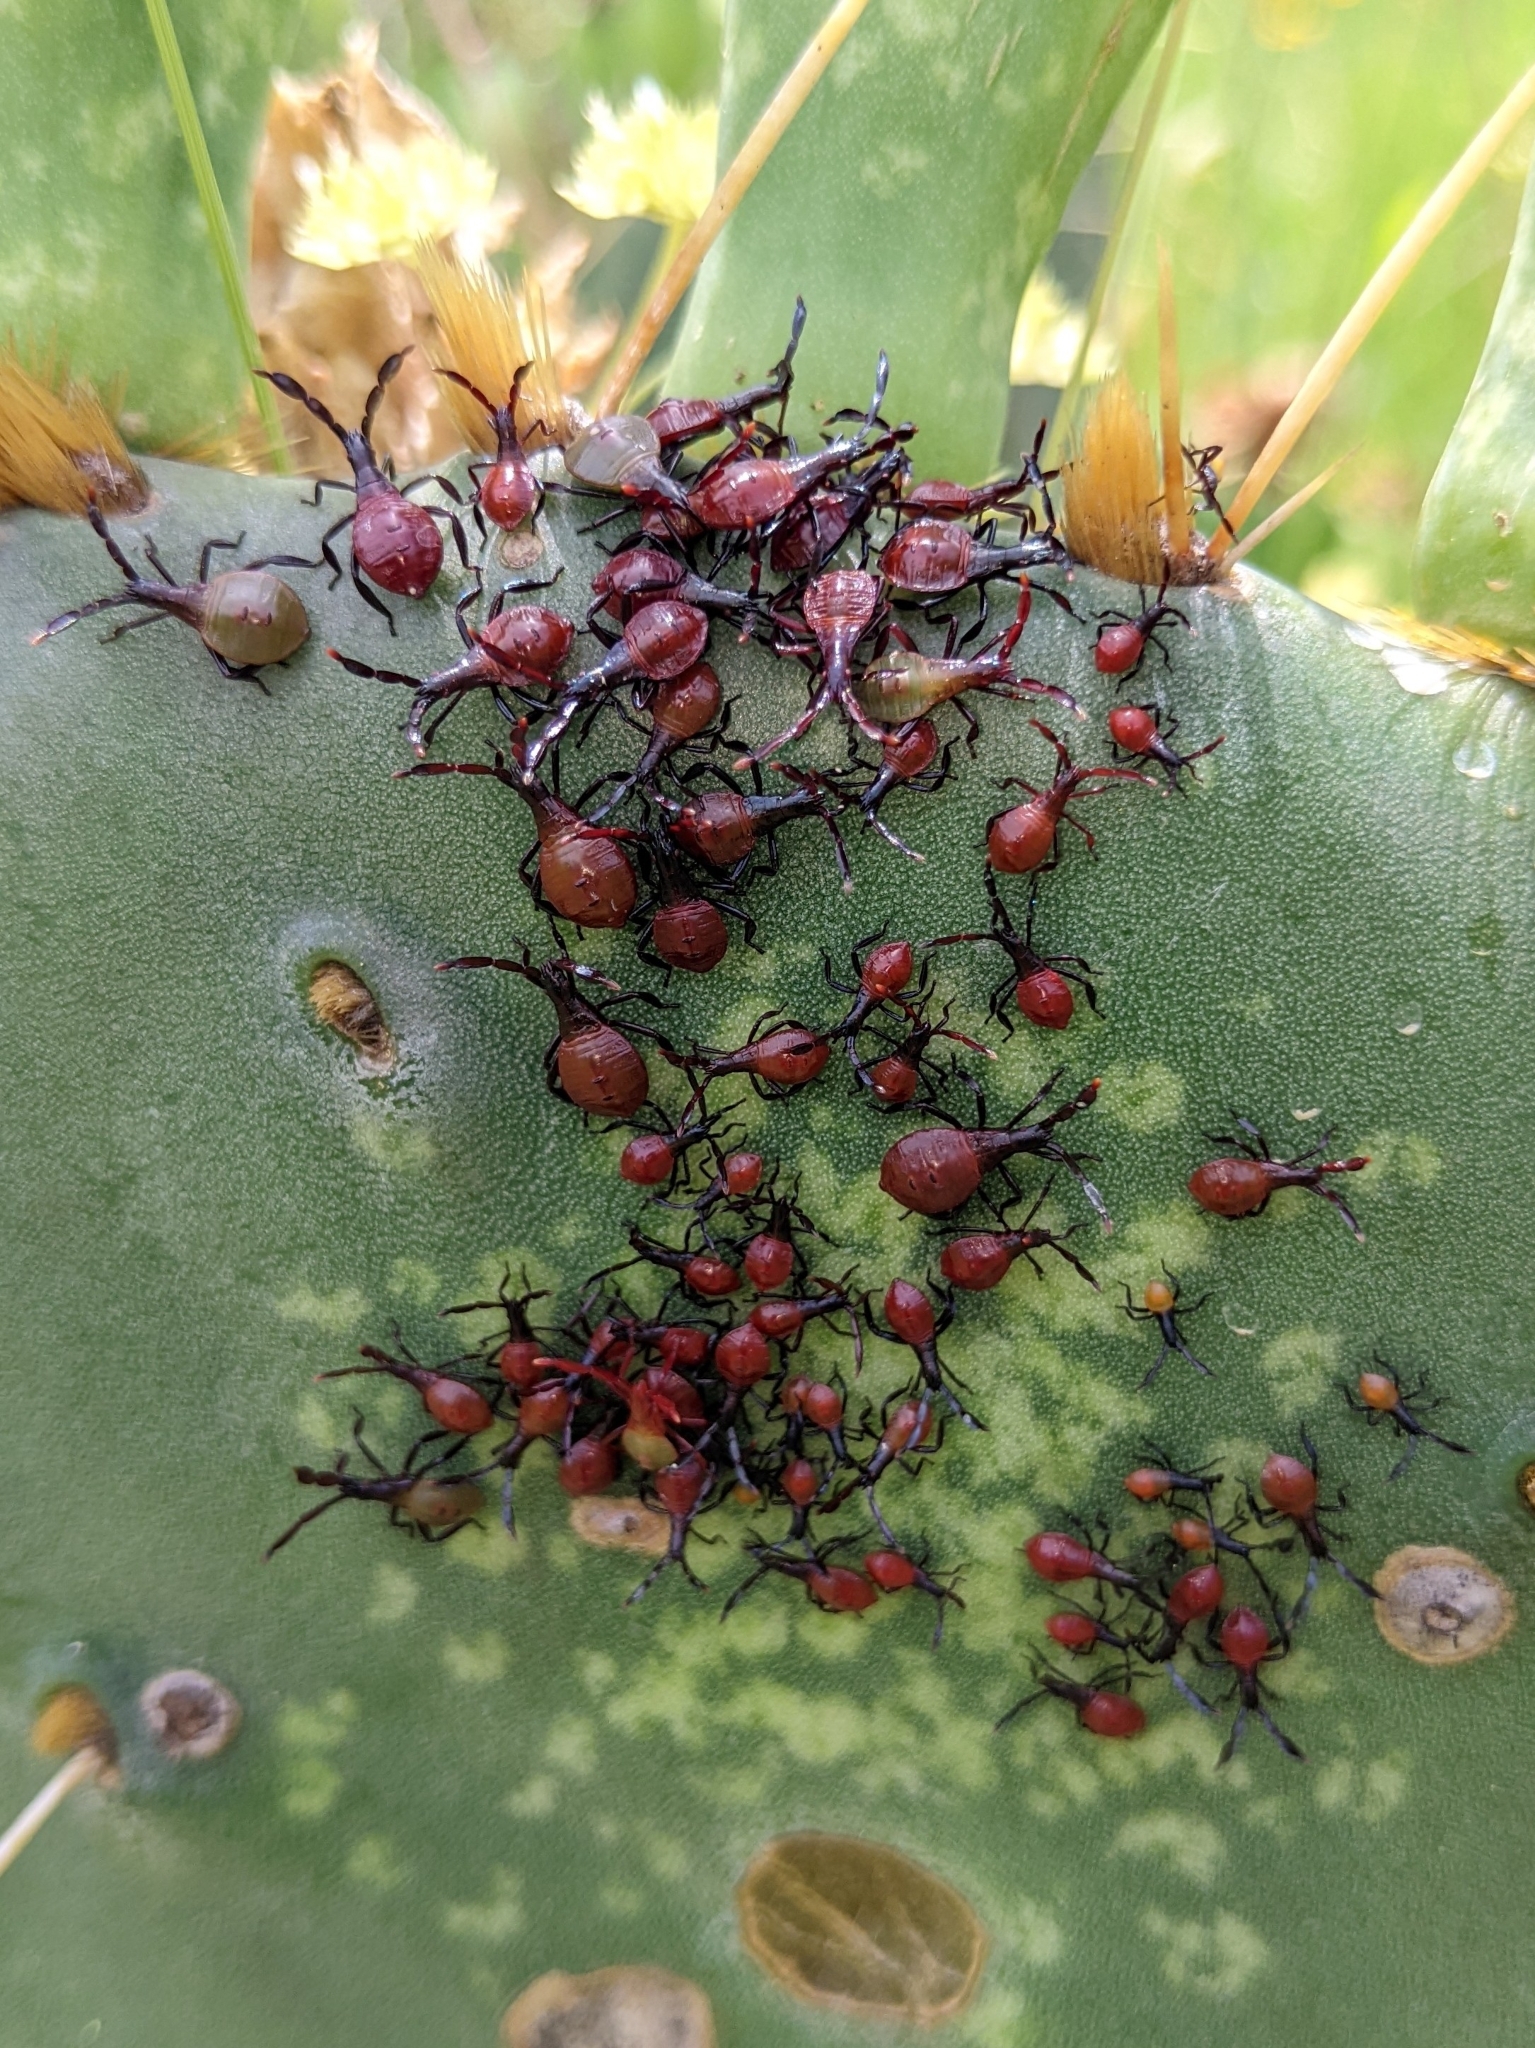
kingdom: Animalia
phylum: Arthropoda
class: Insecta
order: Hemiptera
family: Coreidae
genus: Chelinidea
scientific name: Chelinidea vittiger
